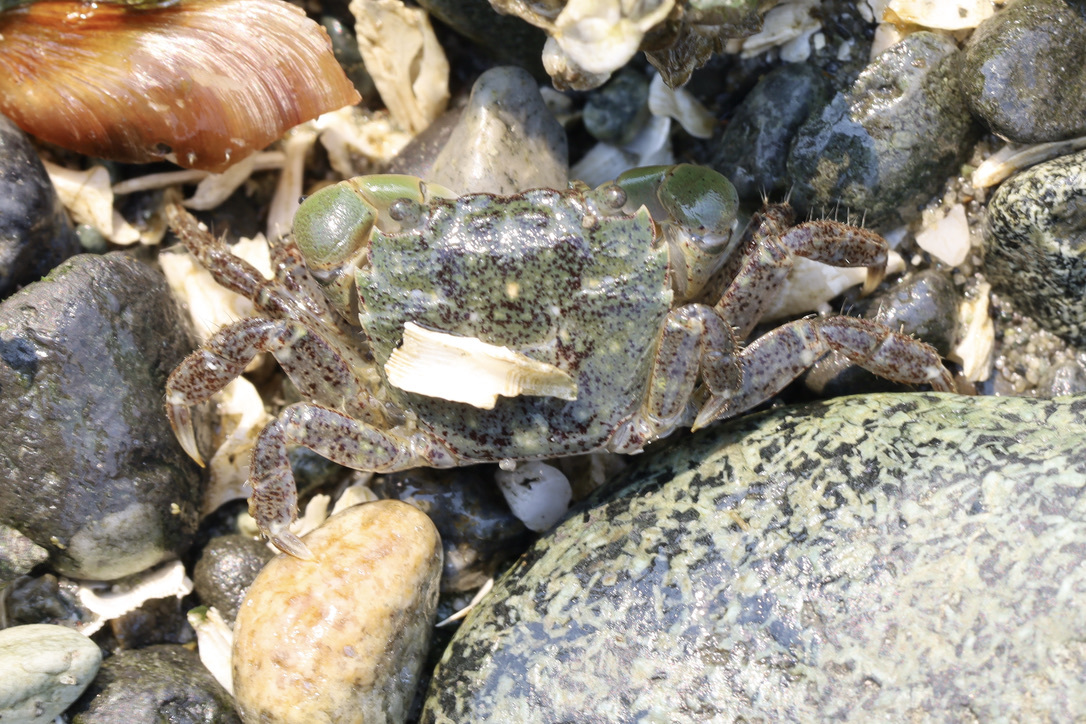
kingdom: Animalia
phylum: Arthropoda
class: Malacostraca
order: Decapoda
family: Varunidae
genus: Hemigrapsus
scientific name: Hemigrapsus oregonensis
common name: Yellow shore crab
